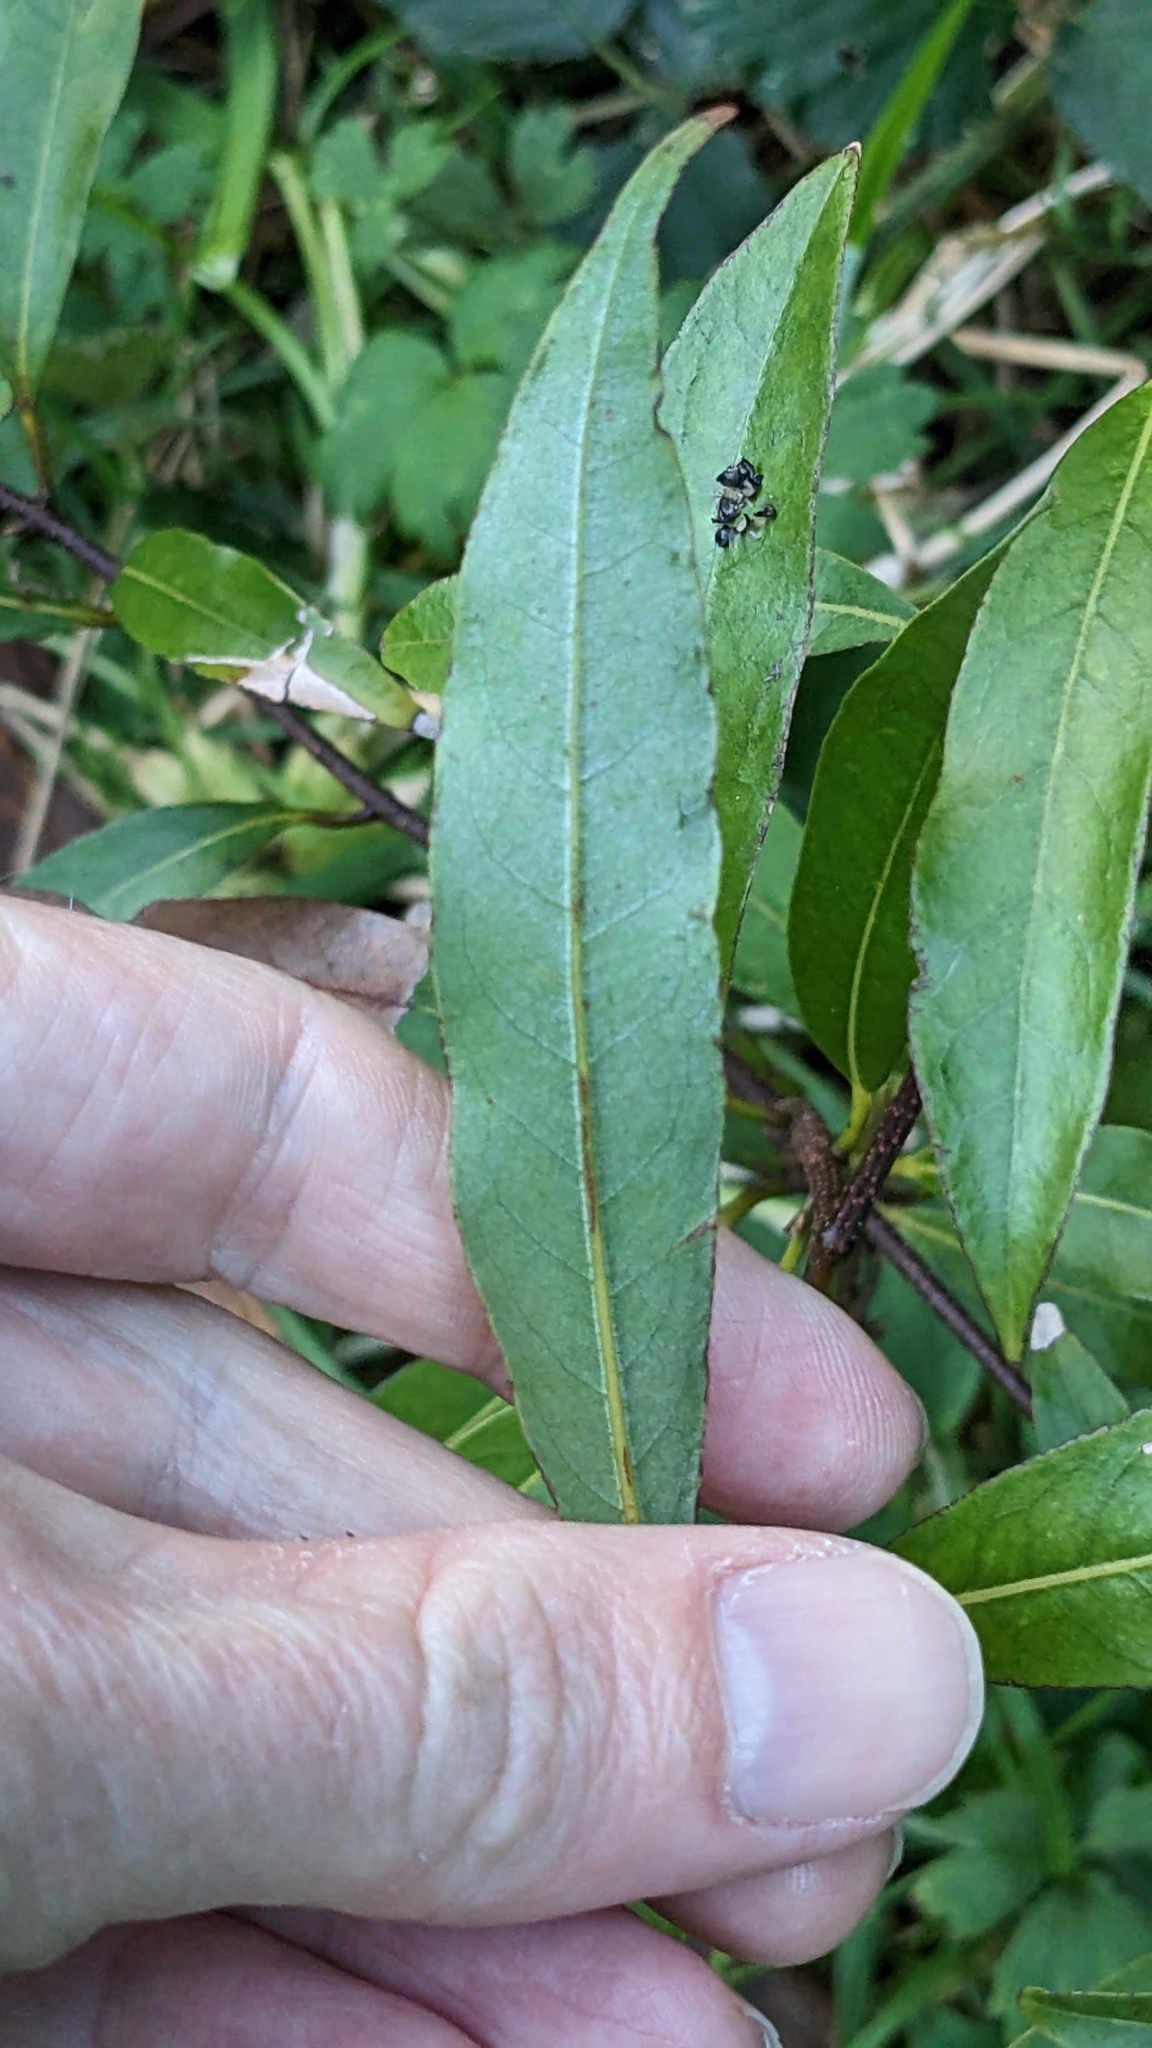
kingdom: Plantae
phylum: Tracheophyta
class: Magnoliopsida
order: Laurales
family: Lauraceae
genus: Beilschmiedia
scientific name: Beilschmiedia tawa
